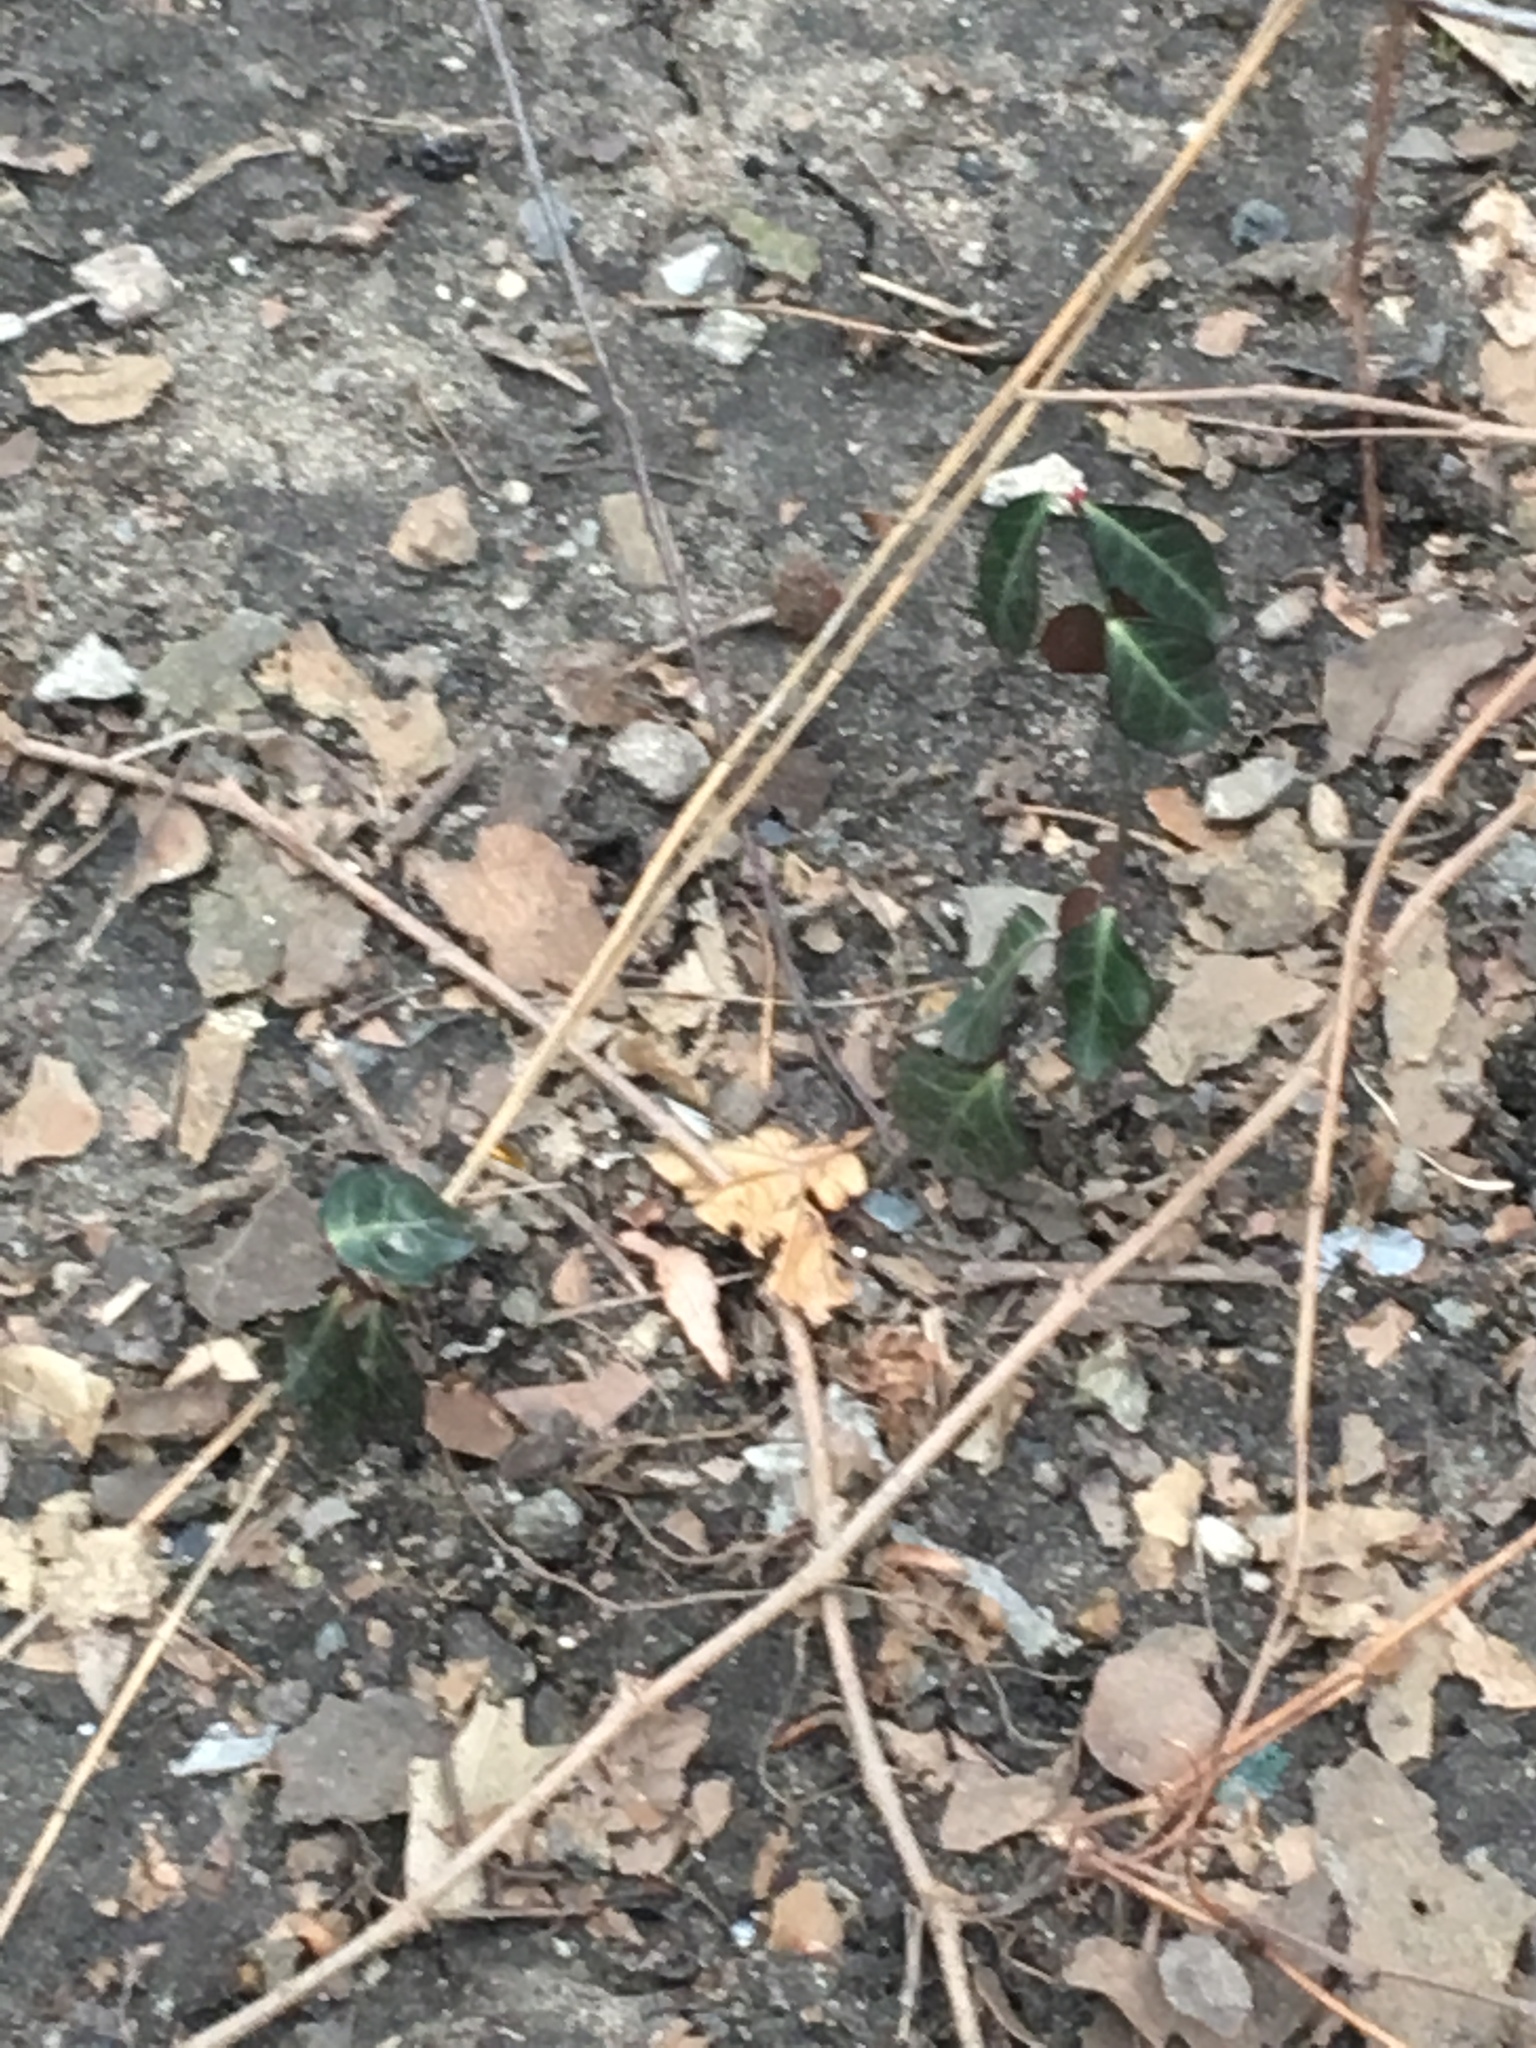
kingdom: Plantae
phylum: Tracheophyta
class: Magnoliopsida
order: Celastrales
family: Celastraceae
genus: Euonymus
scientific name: Euonymus fortunei
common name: Climbing euonymus
